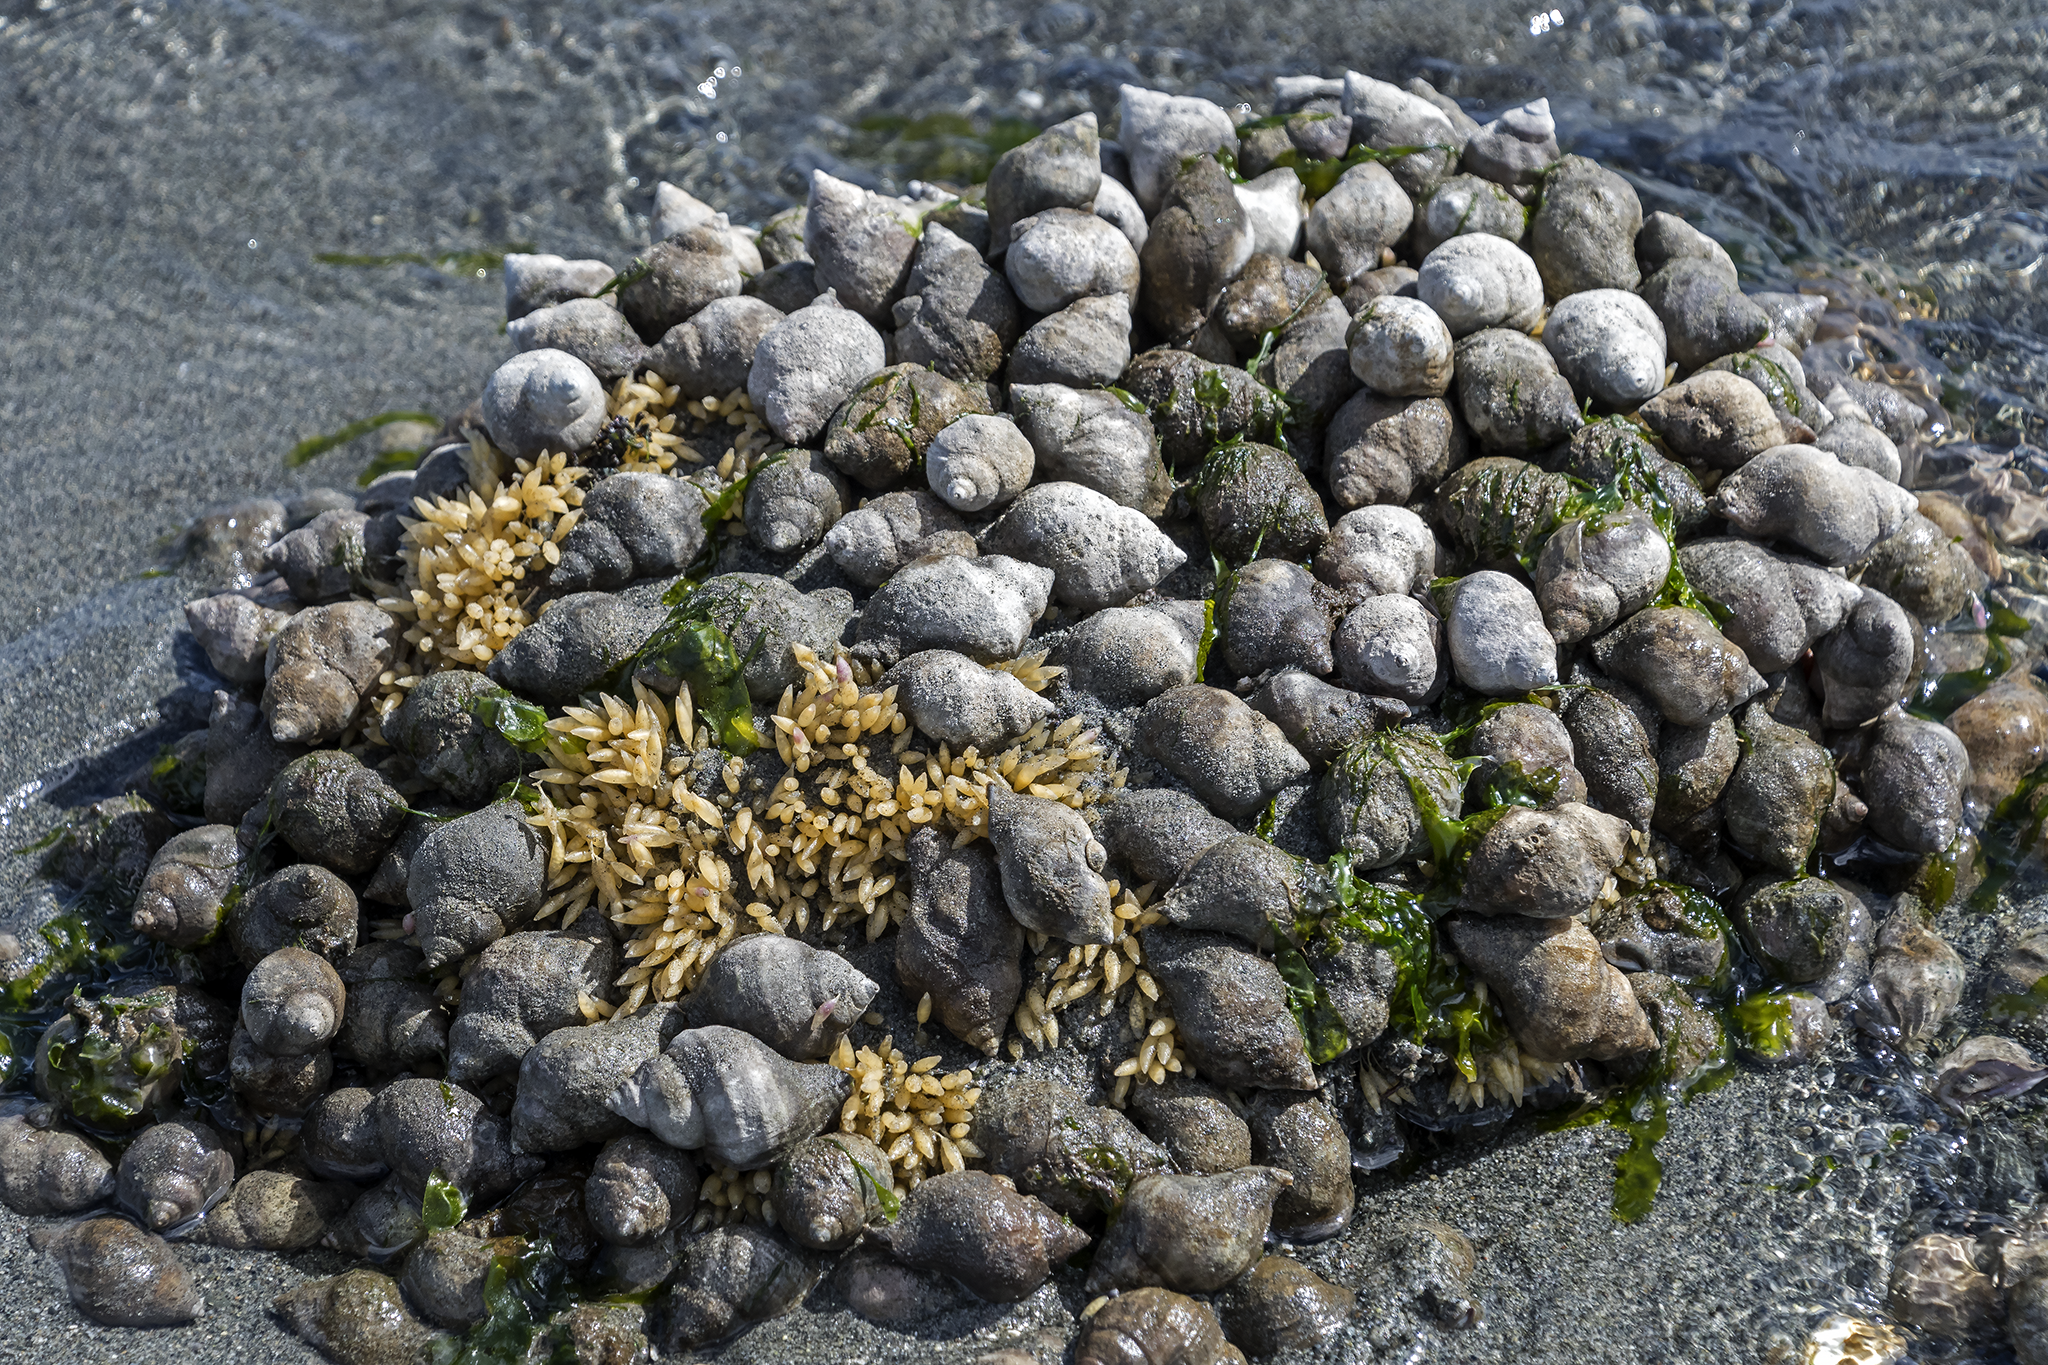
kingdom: Animalia
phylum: Mollusca
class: Gastropoda
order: Neogastropoda
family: Muricidae
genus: Nucella
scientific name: Nucella lamellosa
